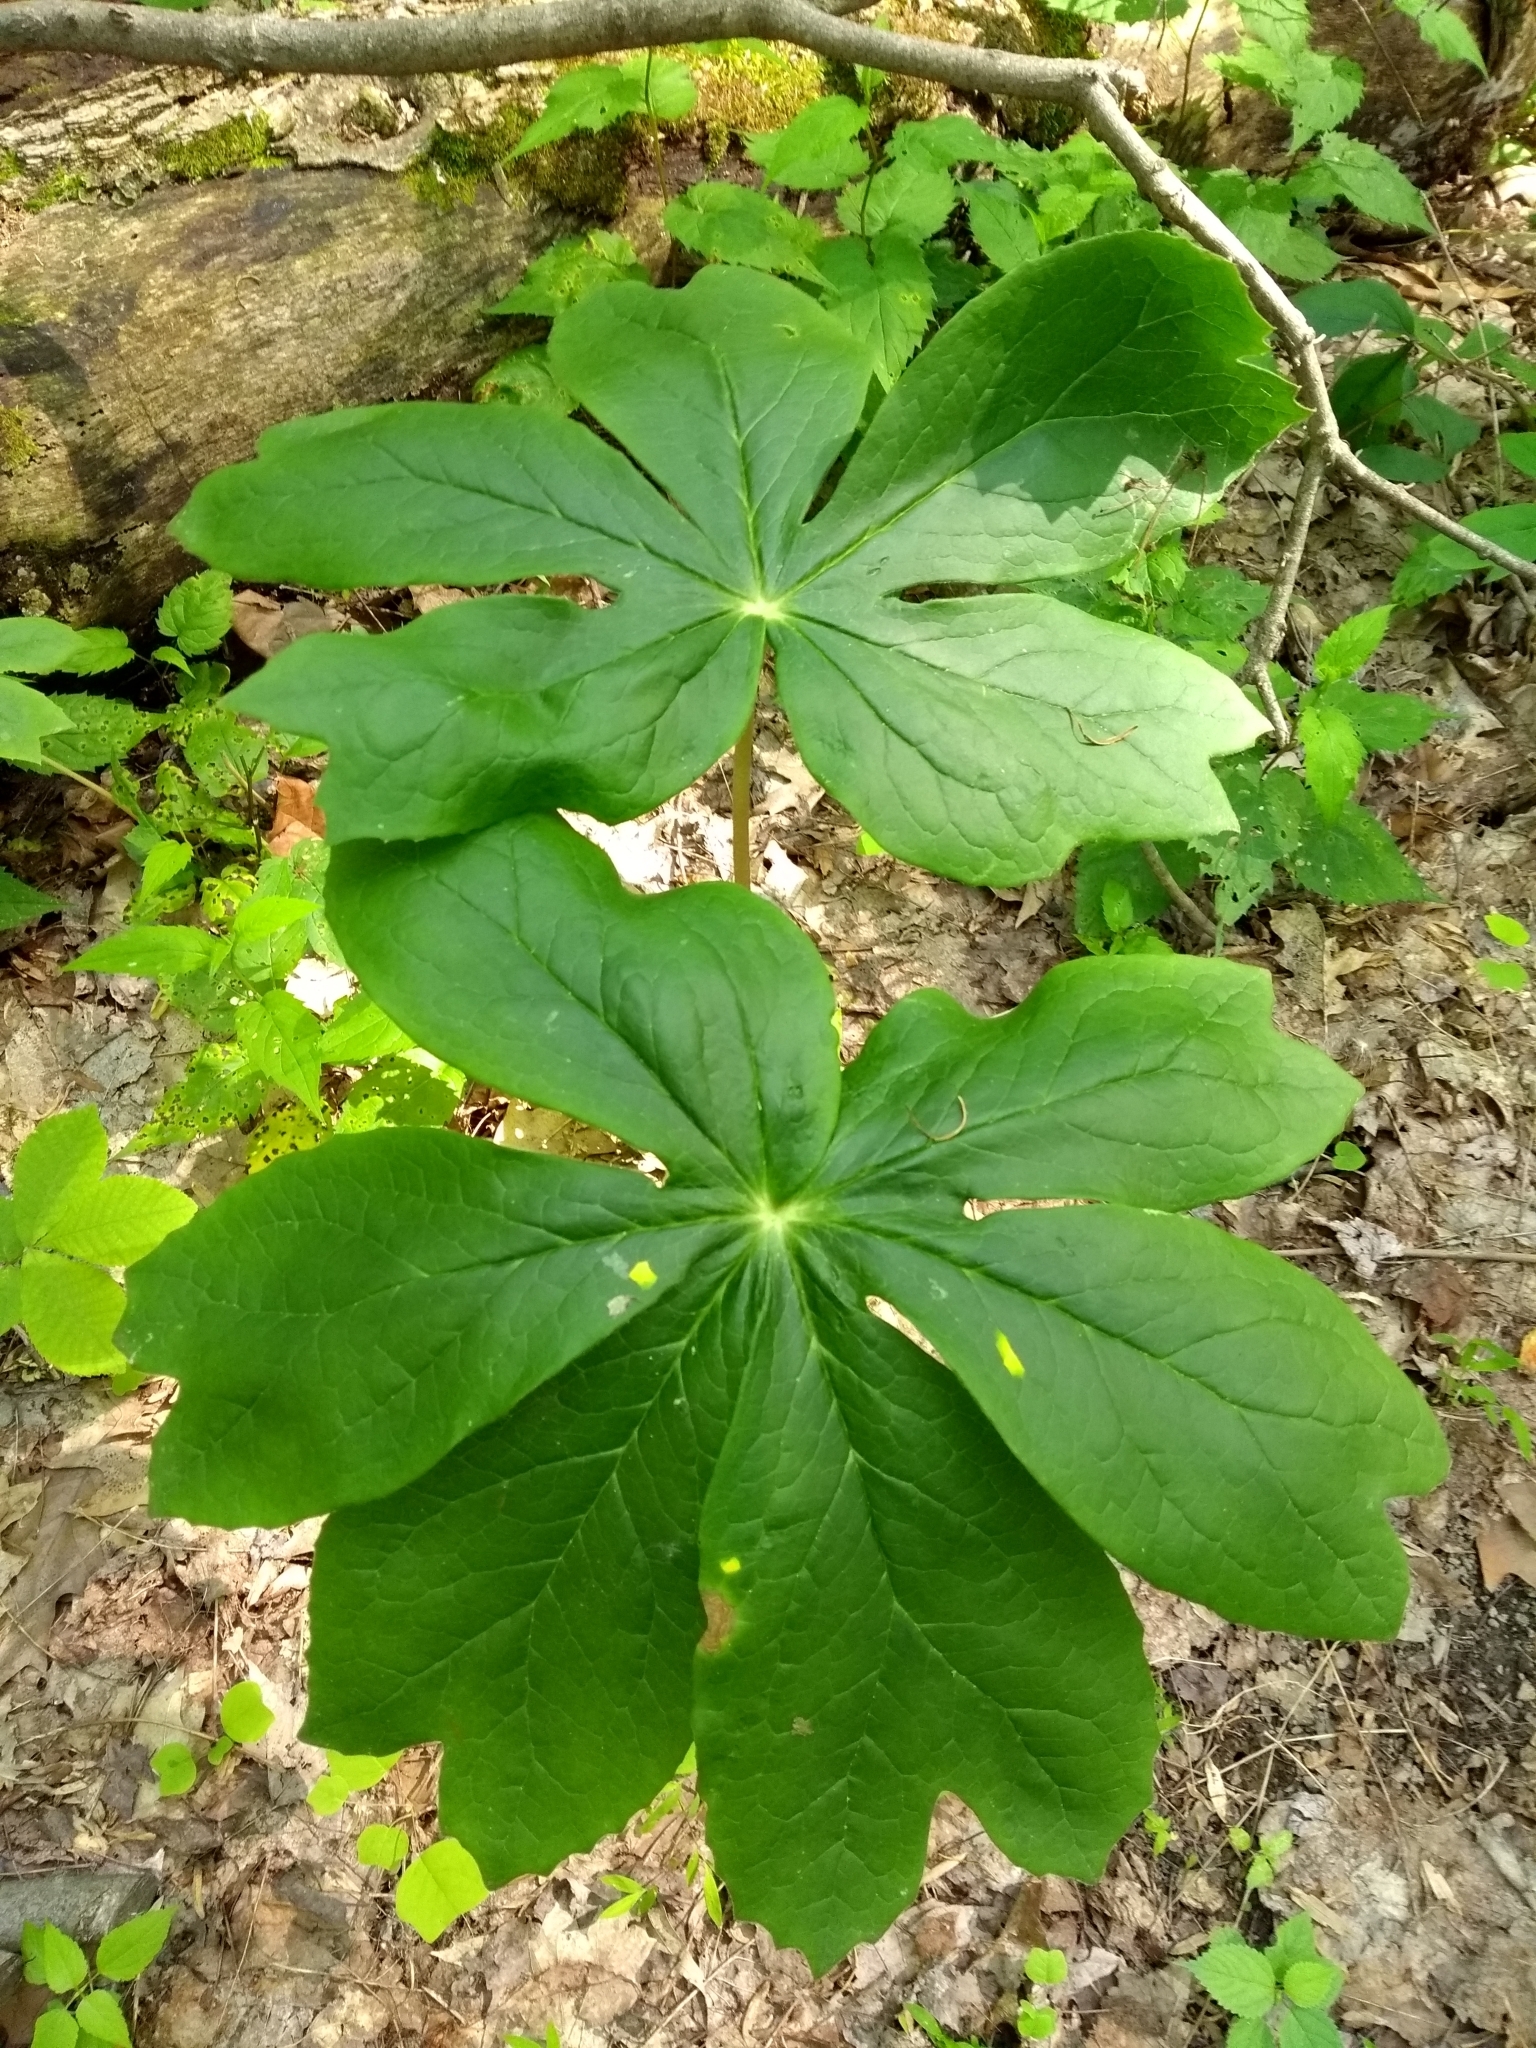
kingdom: Plantae
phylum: Tracheophyta
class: Magnoliopsida
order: Ranunculales
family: Berberidaceae
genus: Podophyllum
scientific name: Podophyllum peltatum
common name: Wild mandrake
